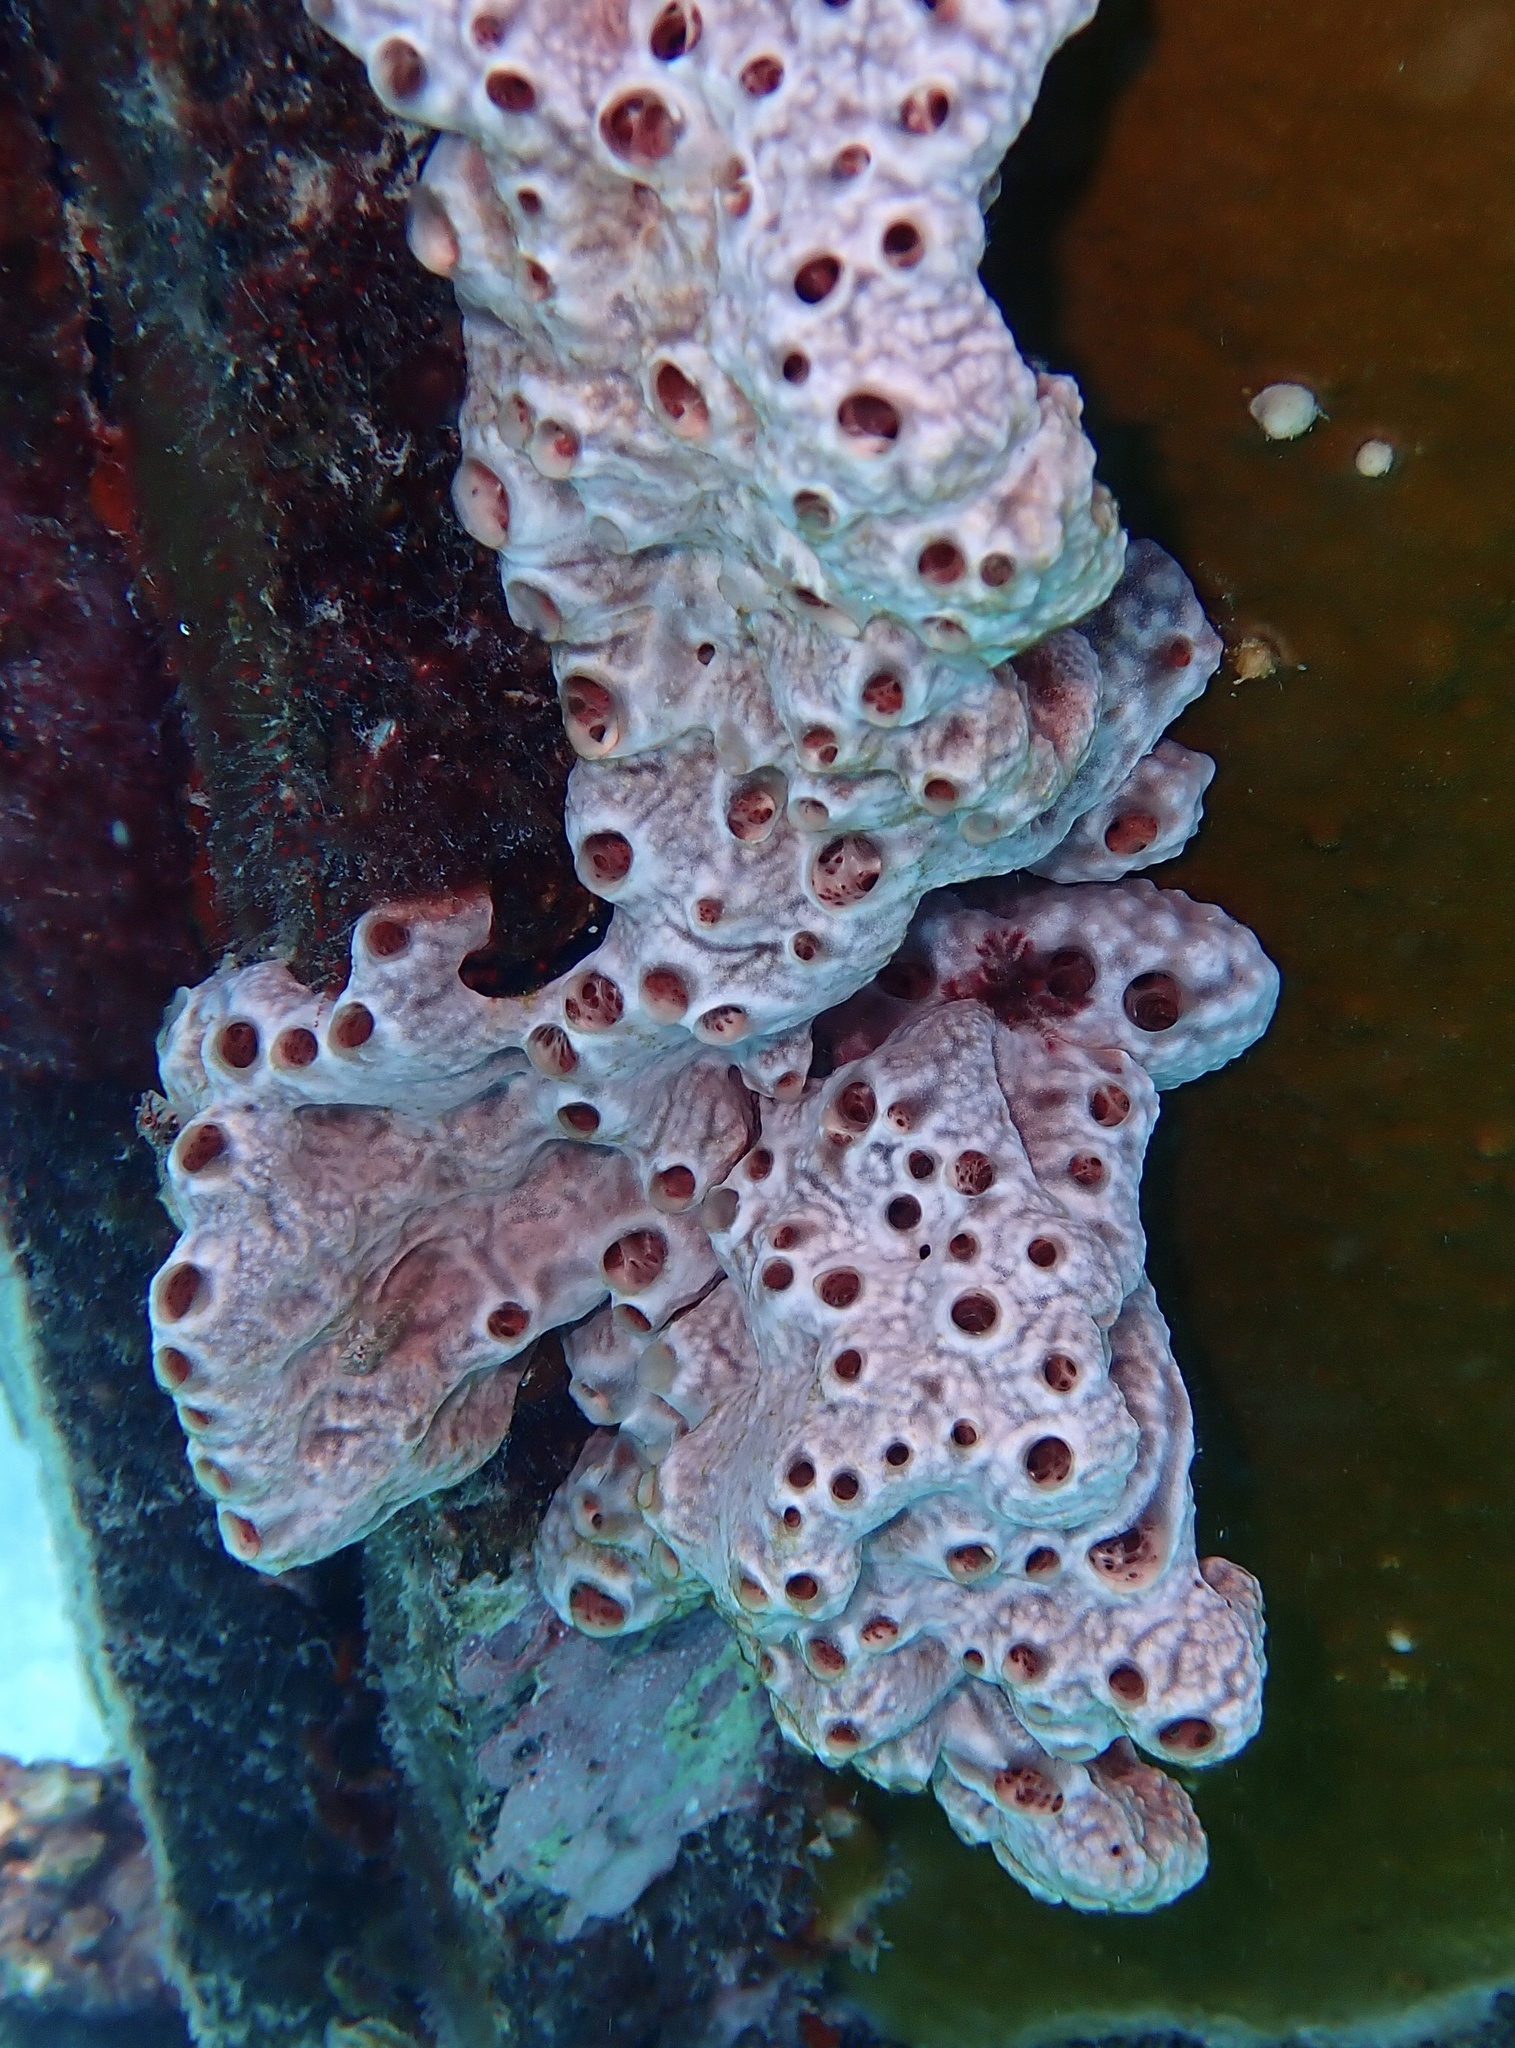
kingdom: Animalia
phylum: Porifera
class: Demospongiae
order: Poecilosclerida
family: Desmacididae
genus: Desmapsamma
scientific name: Desmapsamma anchorata
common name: Lumpy overgrowing sponge
